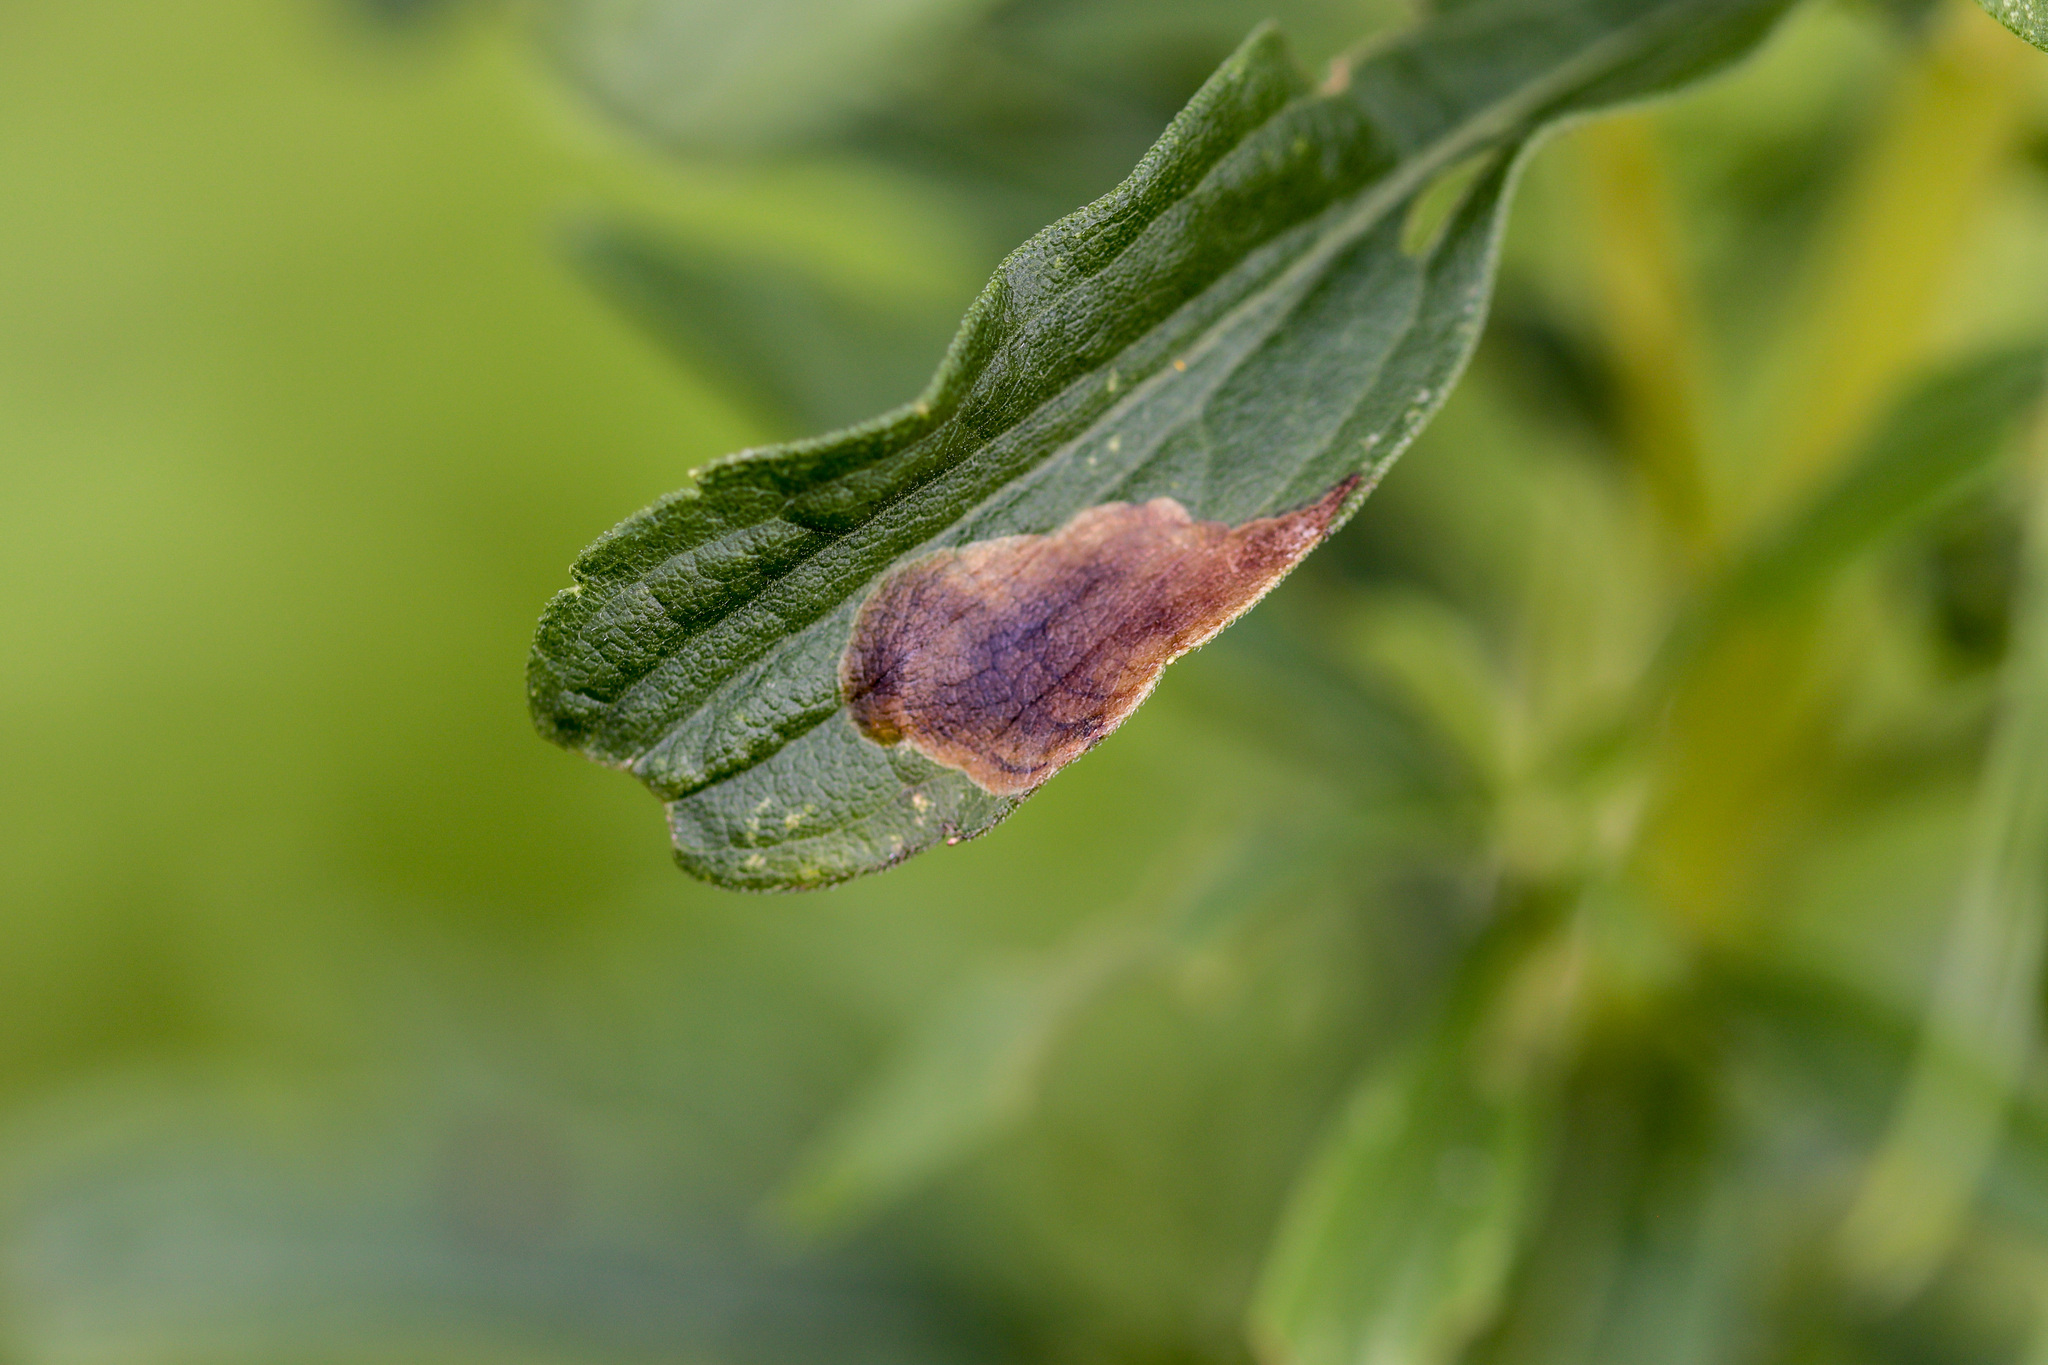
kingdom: Animalia
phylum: Arthropoda
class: Insecta
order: Diptera
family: Agromyzidae
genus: Nemorimyza
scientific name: Nemorimyza posticata
